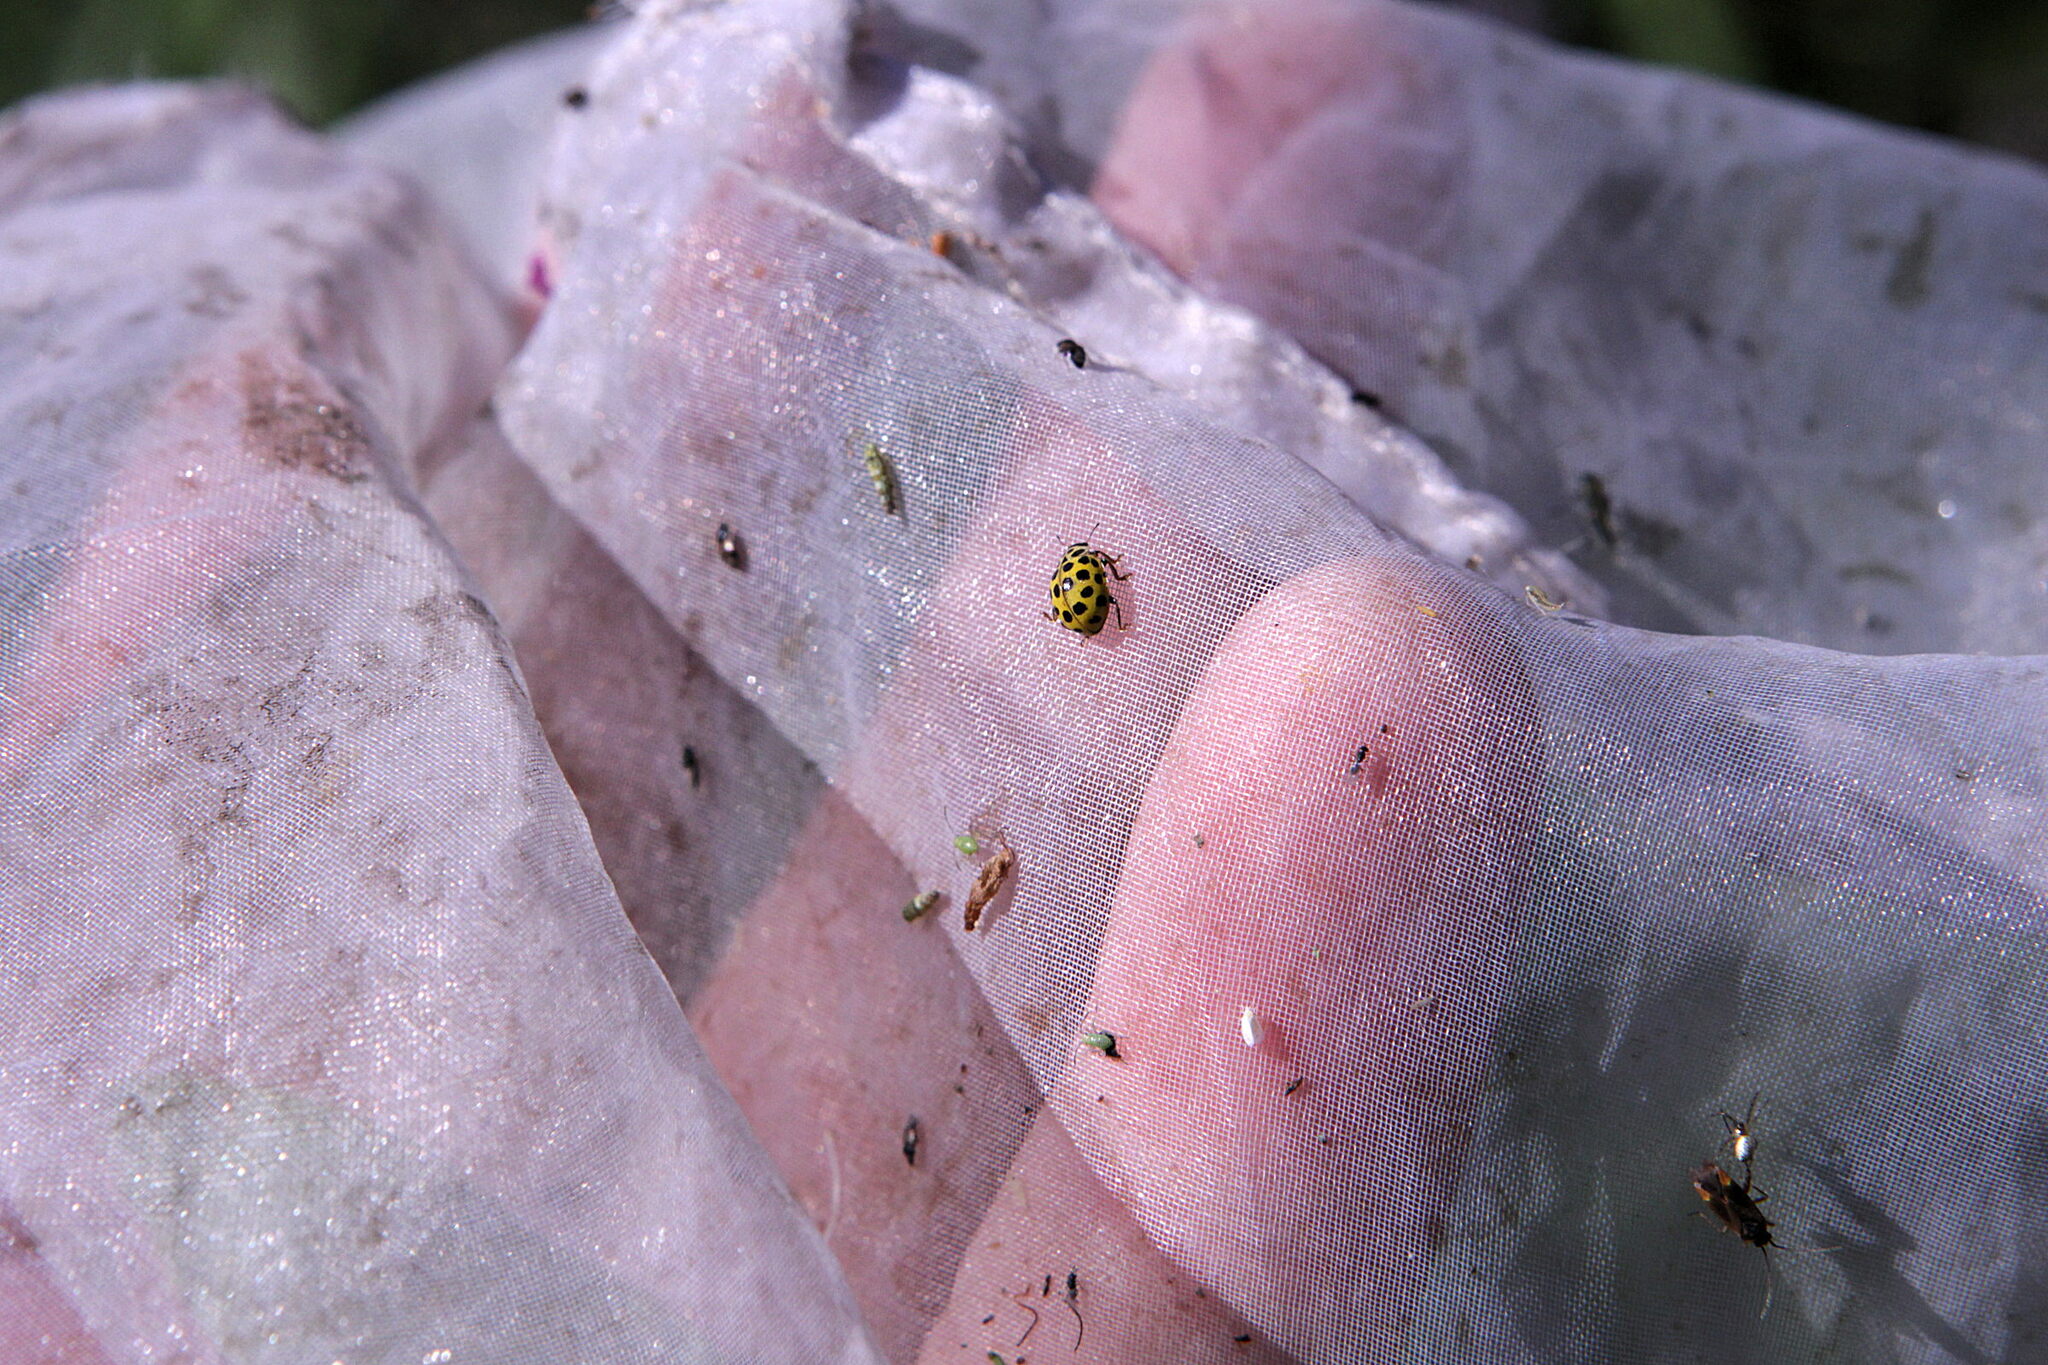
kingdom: Animalia
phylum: Arthropoda
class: Insecta
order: Coleoptera
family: Coccinellidae
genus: Psyllobora
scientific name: Psyllobora vigintiduopunctata
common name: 22-spot ladybird
